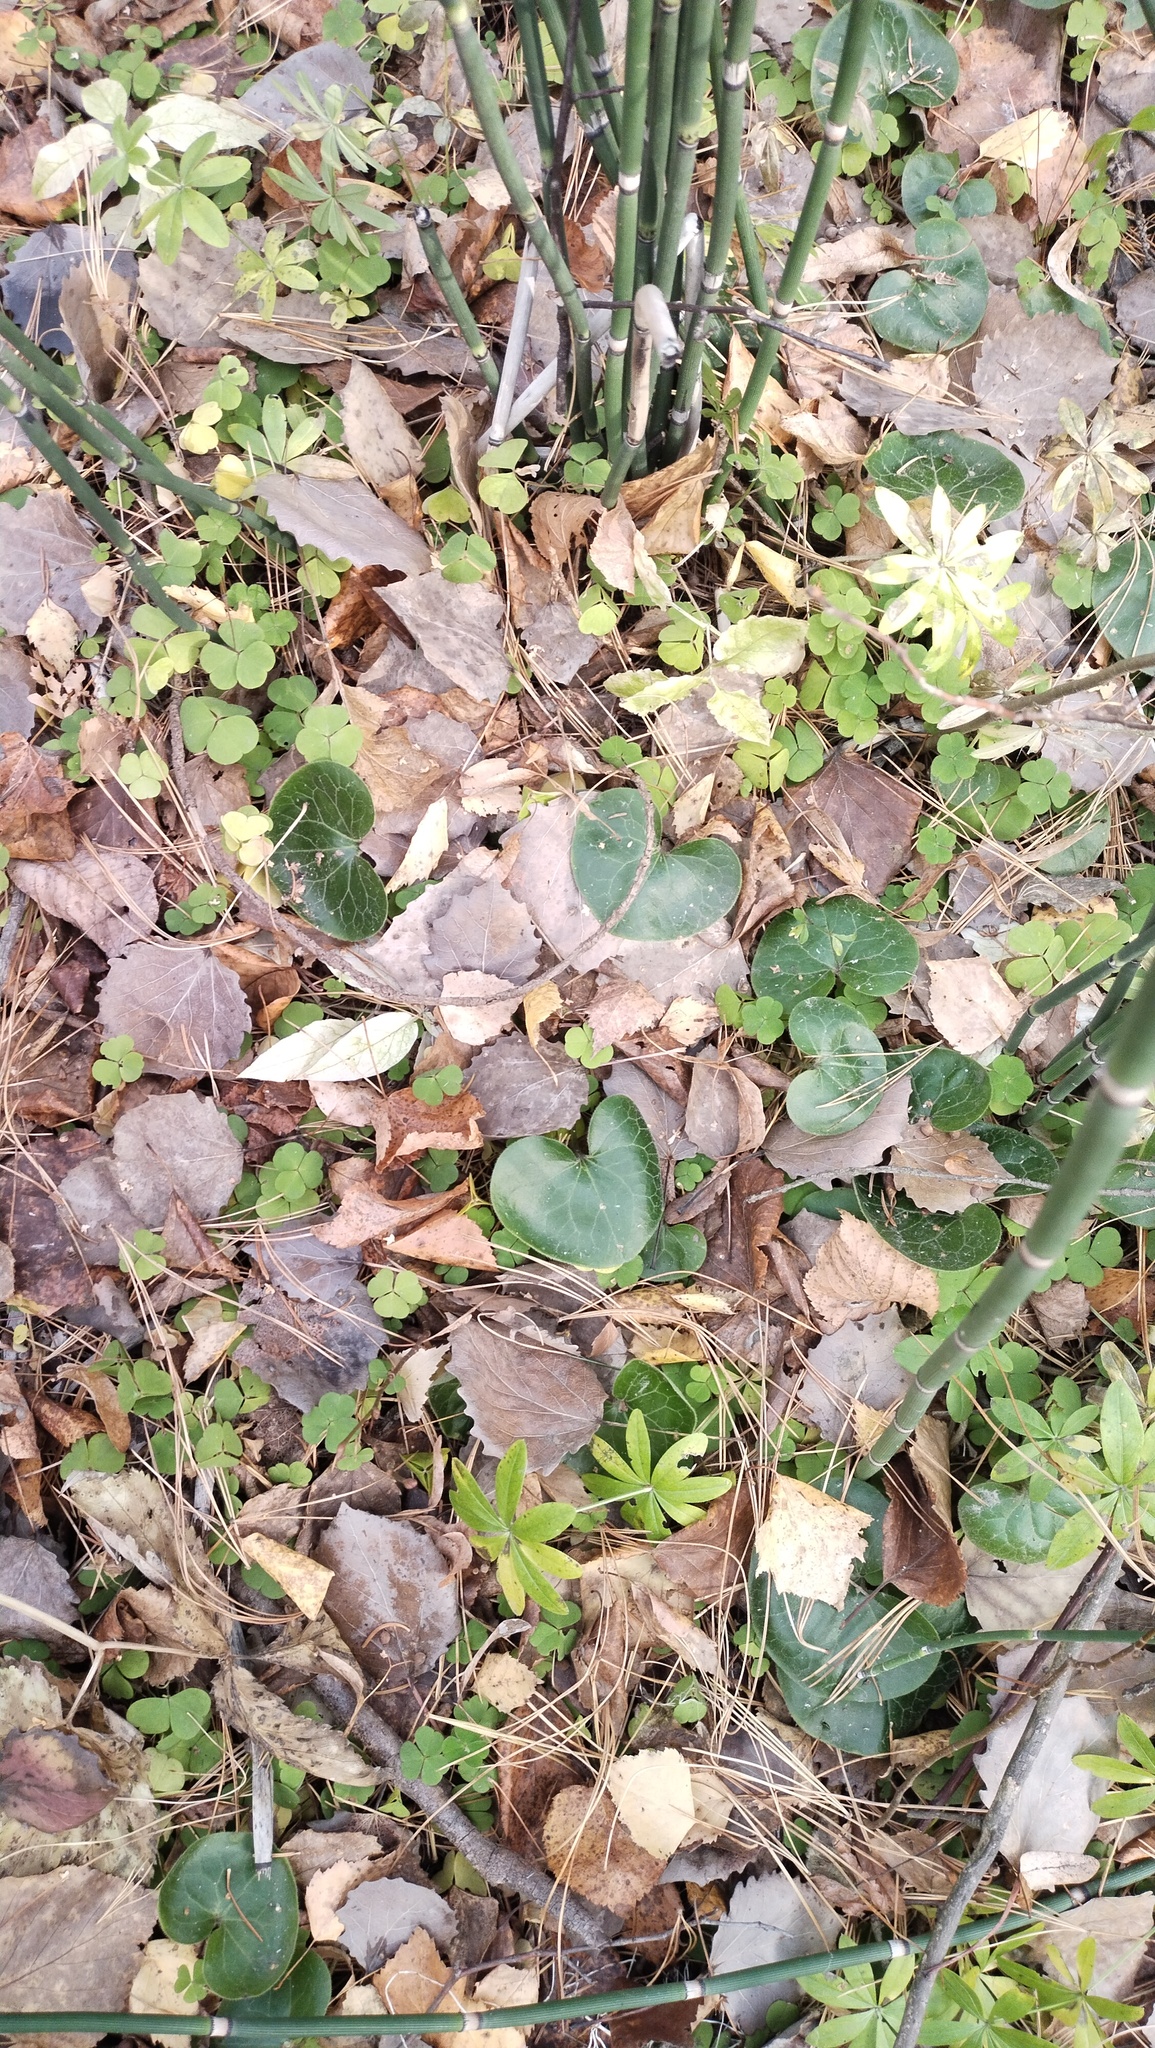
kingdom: Plantae
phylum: Tracheophyta
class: Magnoliopsida
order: Oxalidales
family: Oxalidaceae
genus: Oxalis
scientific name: Oxalis acetosella
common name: Wood-sorrel
